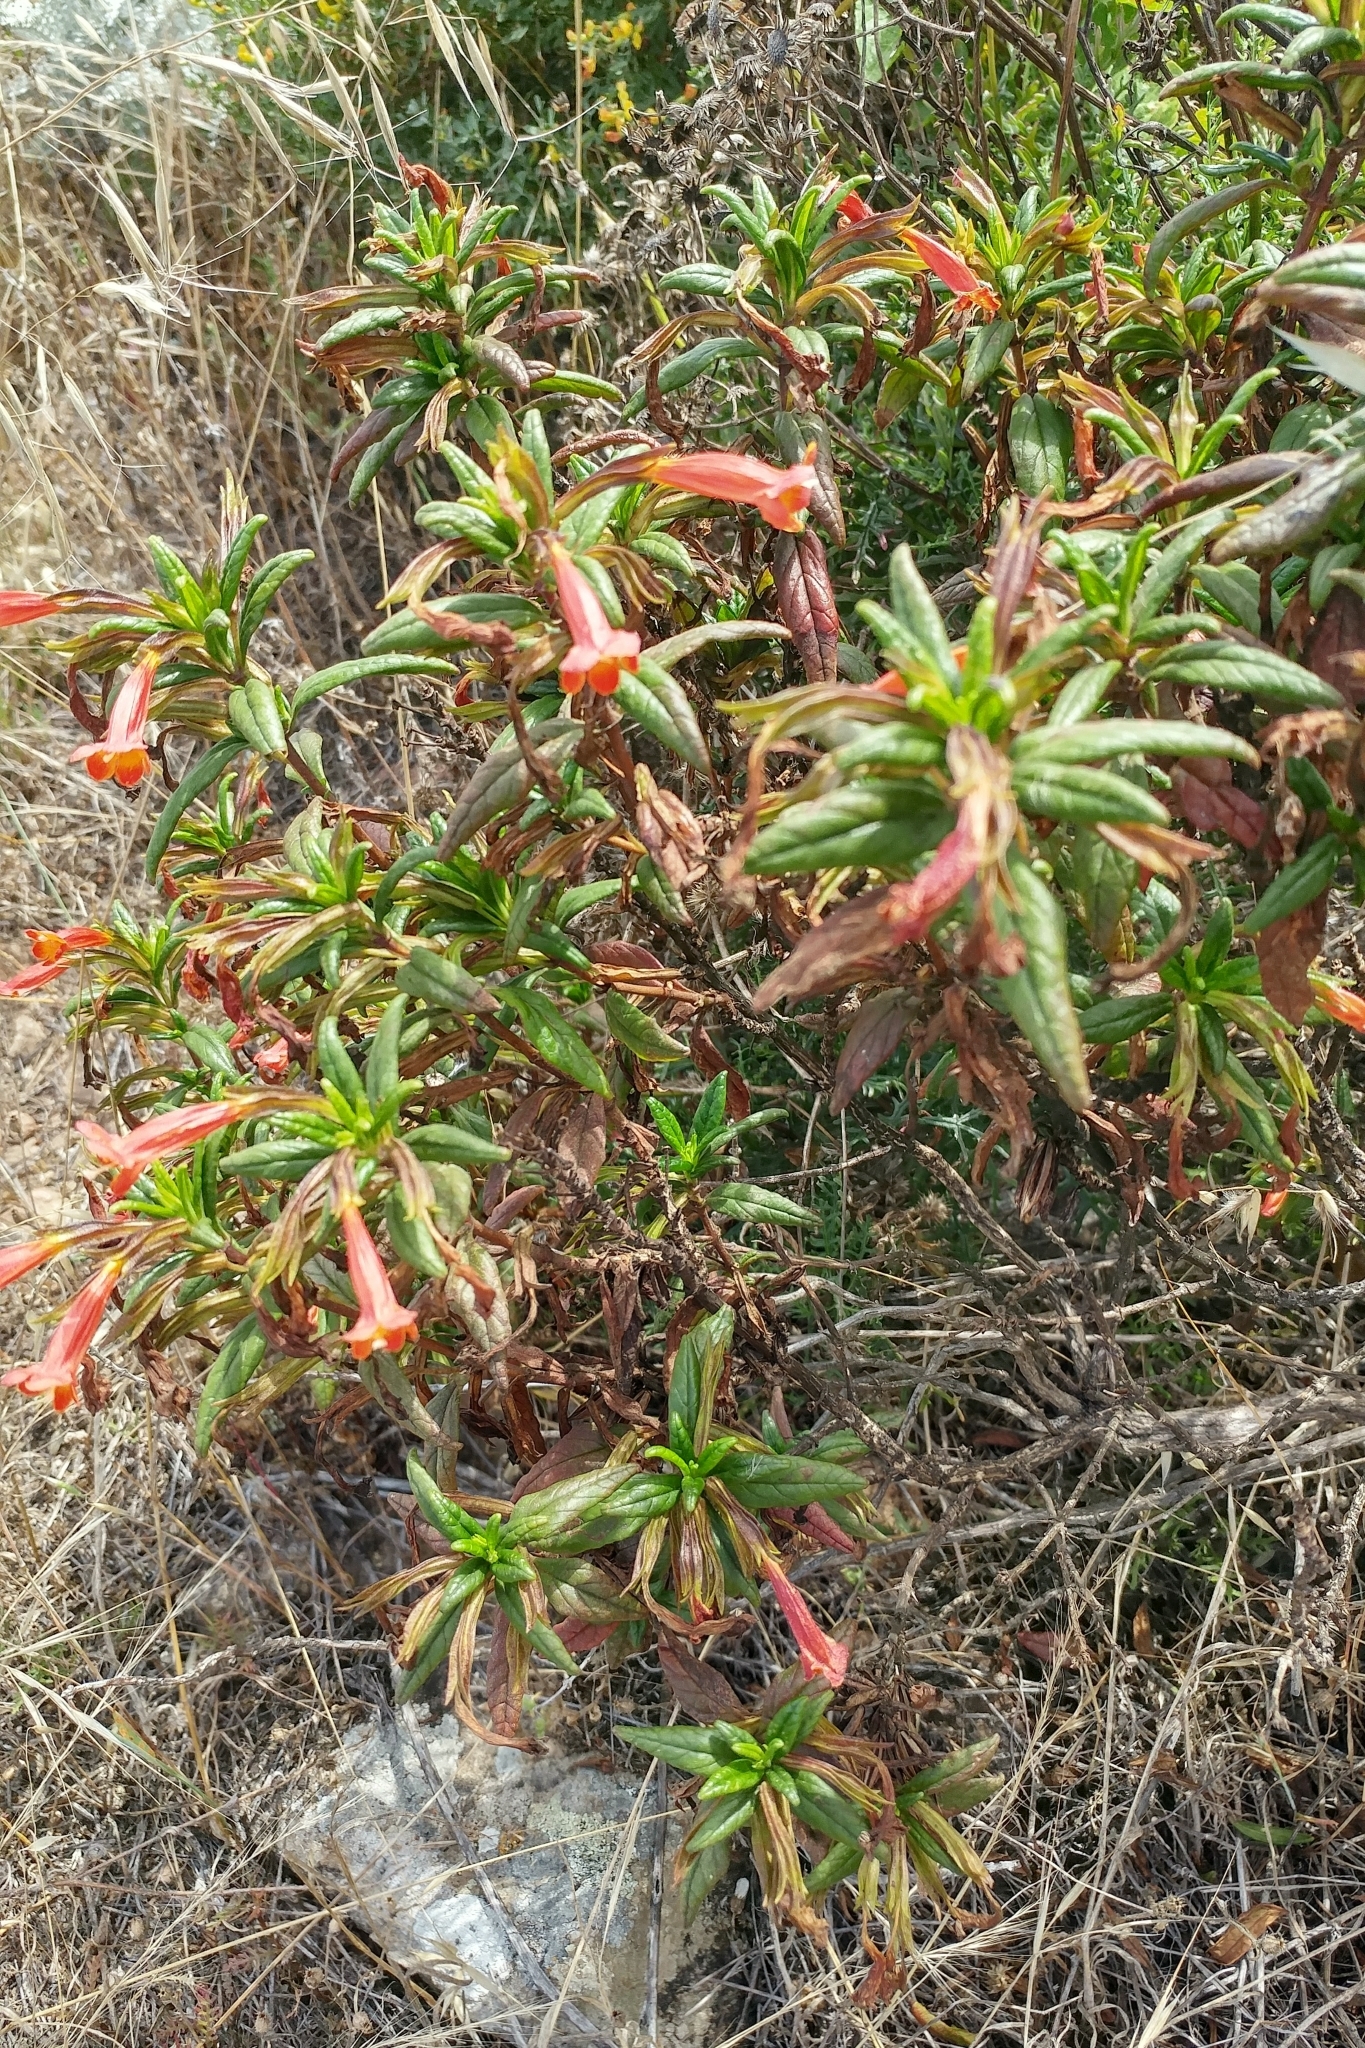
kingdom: Plantae
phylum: Tracheophyta
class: Magnoliopsida
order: Lamiales
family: Phrymaceae
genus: Diplacus
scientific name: Diplacus parviflorus
